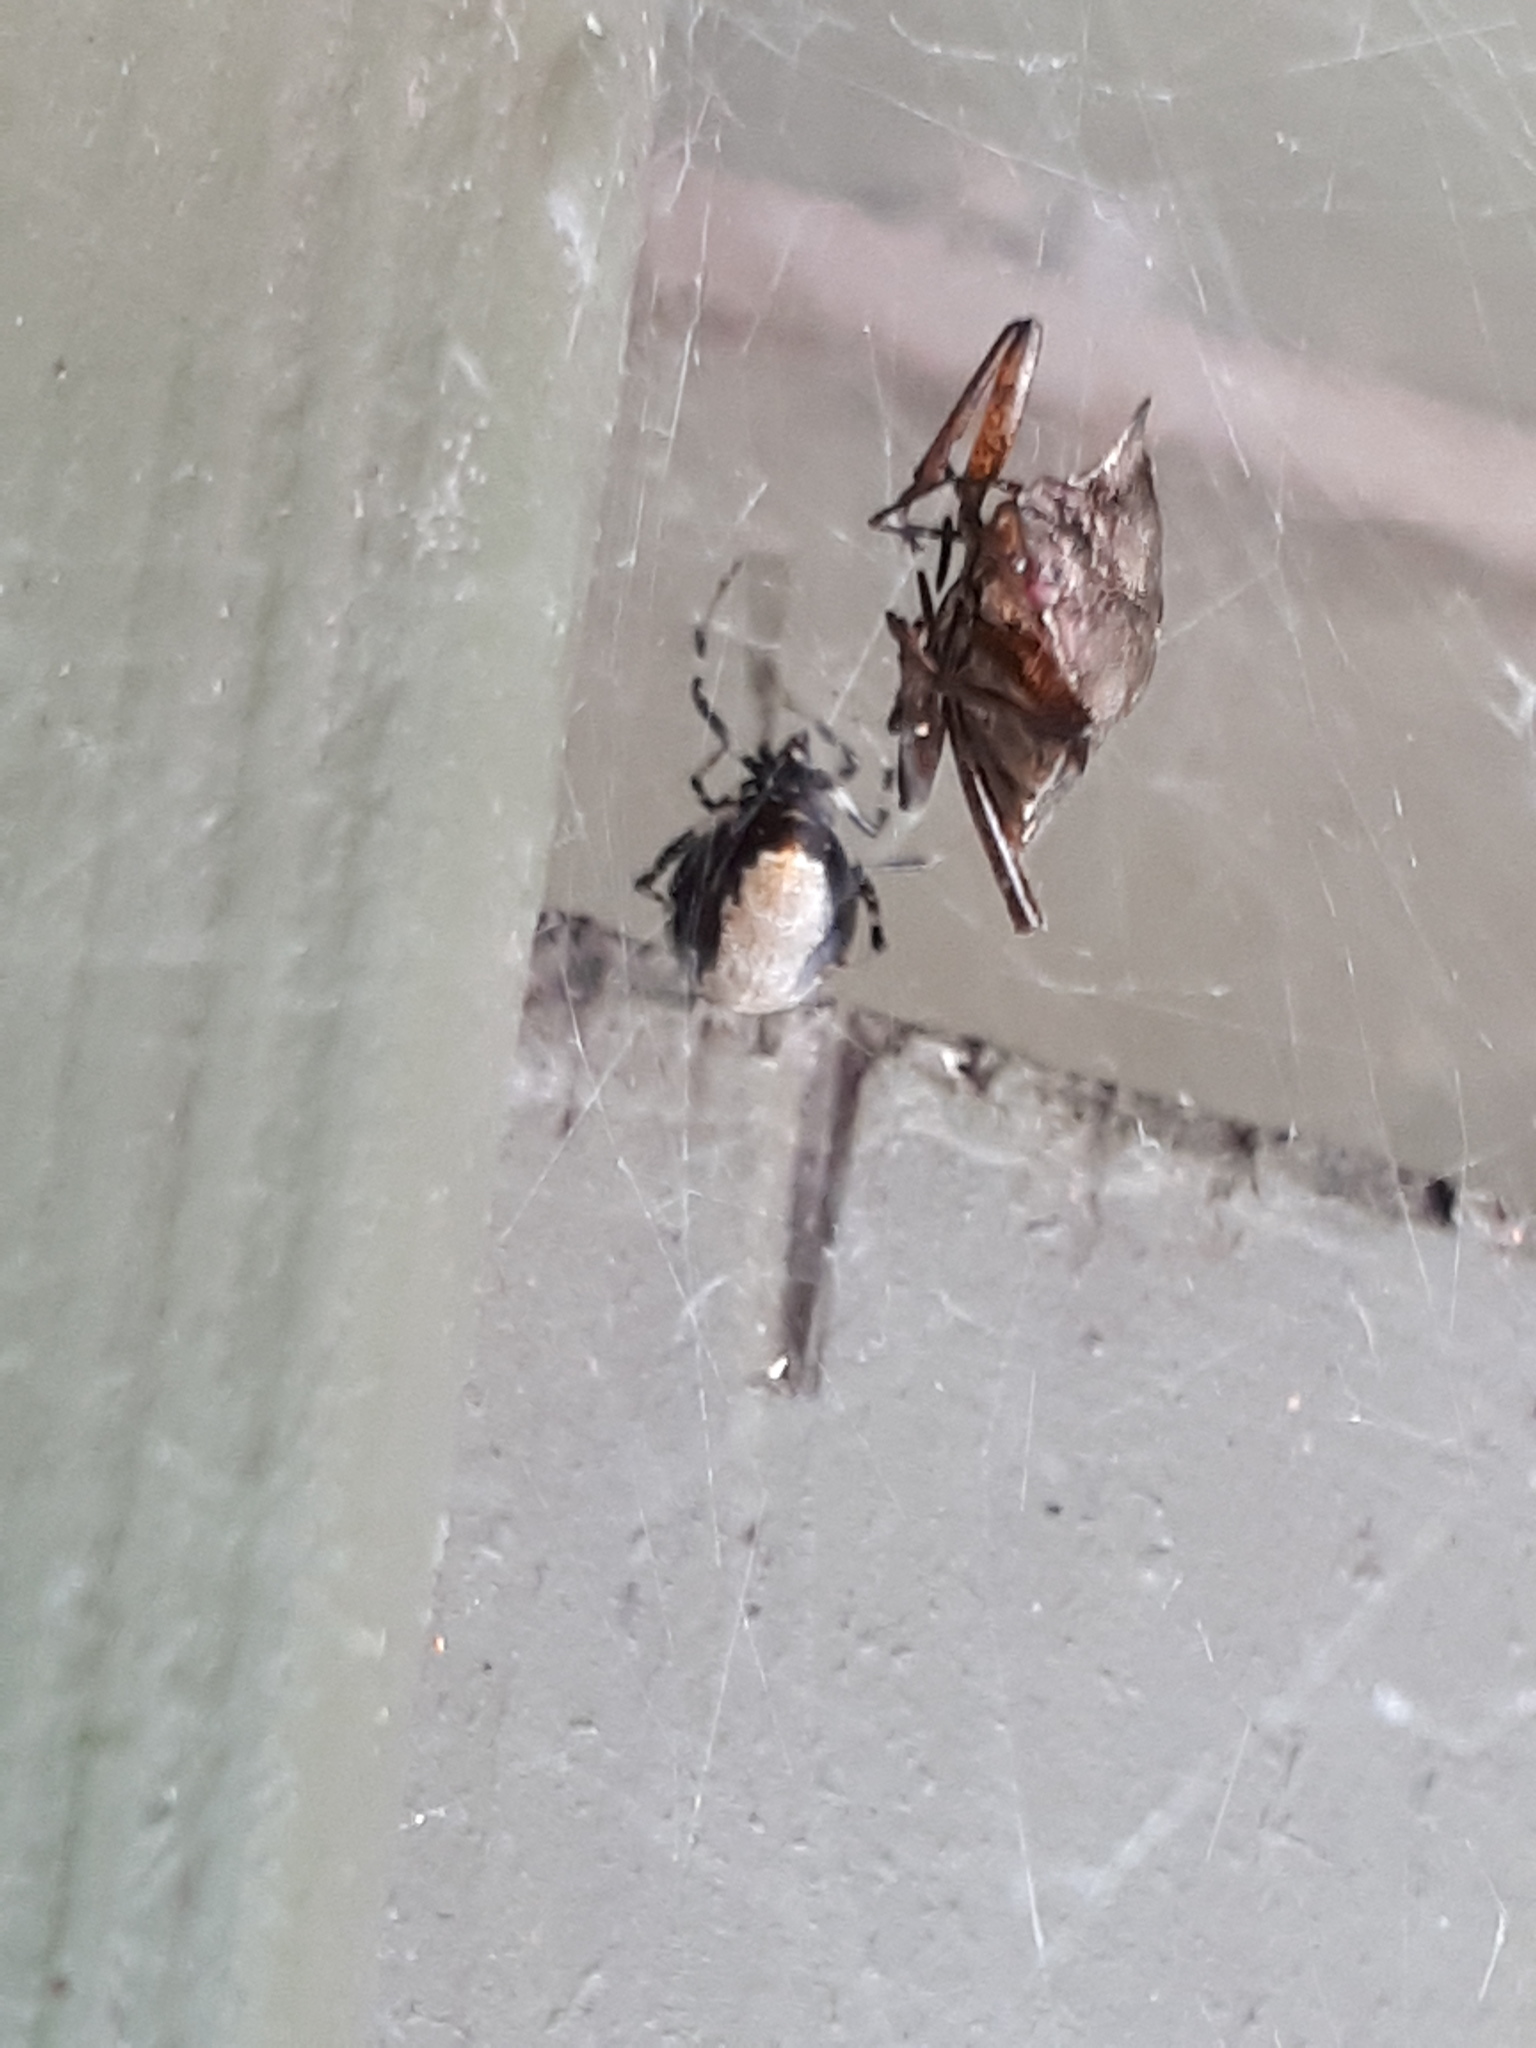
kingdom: Animalia
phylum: Arthropoda
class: Arachnida
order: Araneae
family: Theridiidae
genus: Parasteatoda
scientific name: Parasteatoda lunata
